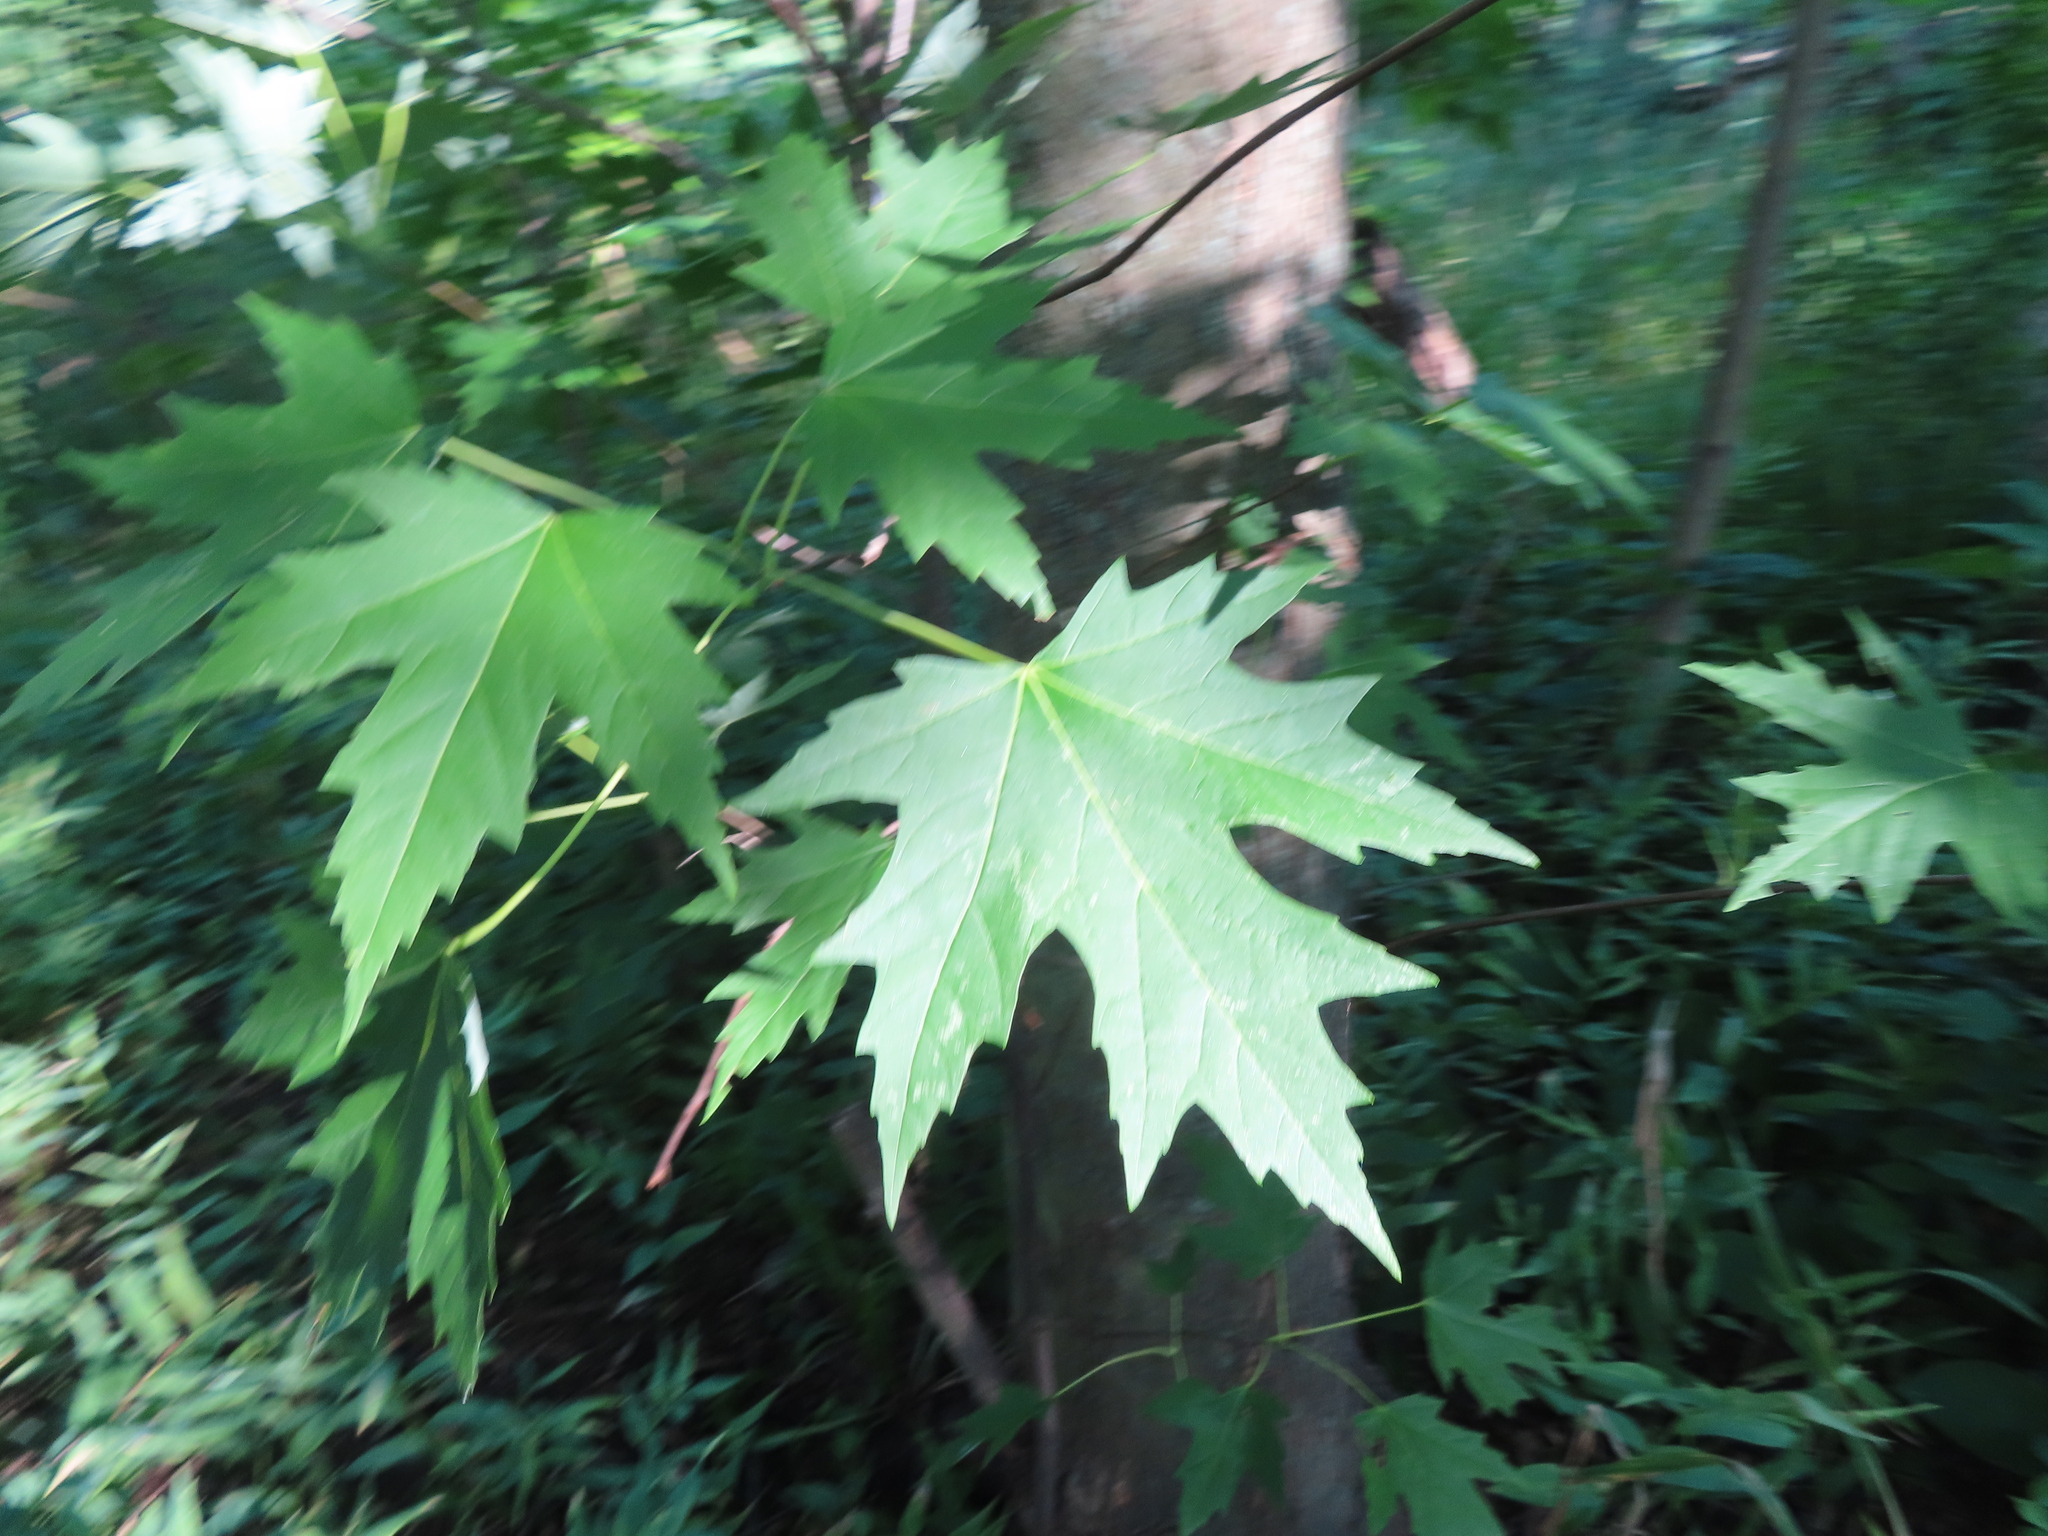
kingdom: Plantae
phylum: Tracheophyta
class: Magnoliopsida
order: Sapindales
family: Sapindaceae
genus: Acer
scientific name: Acer saccharinum
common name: Silver maple
